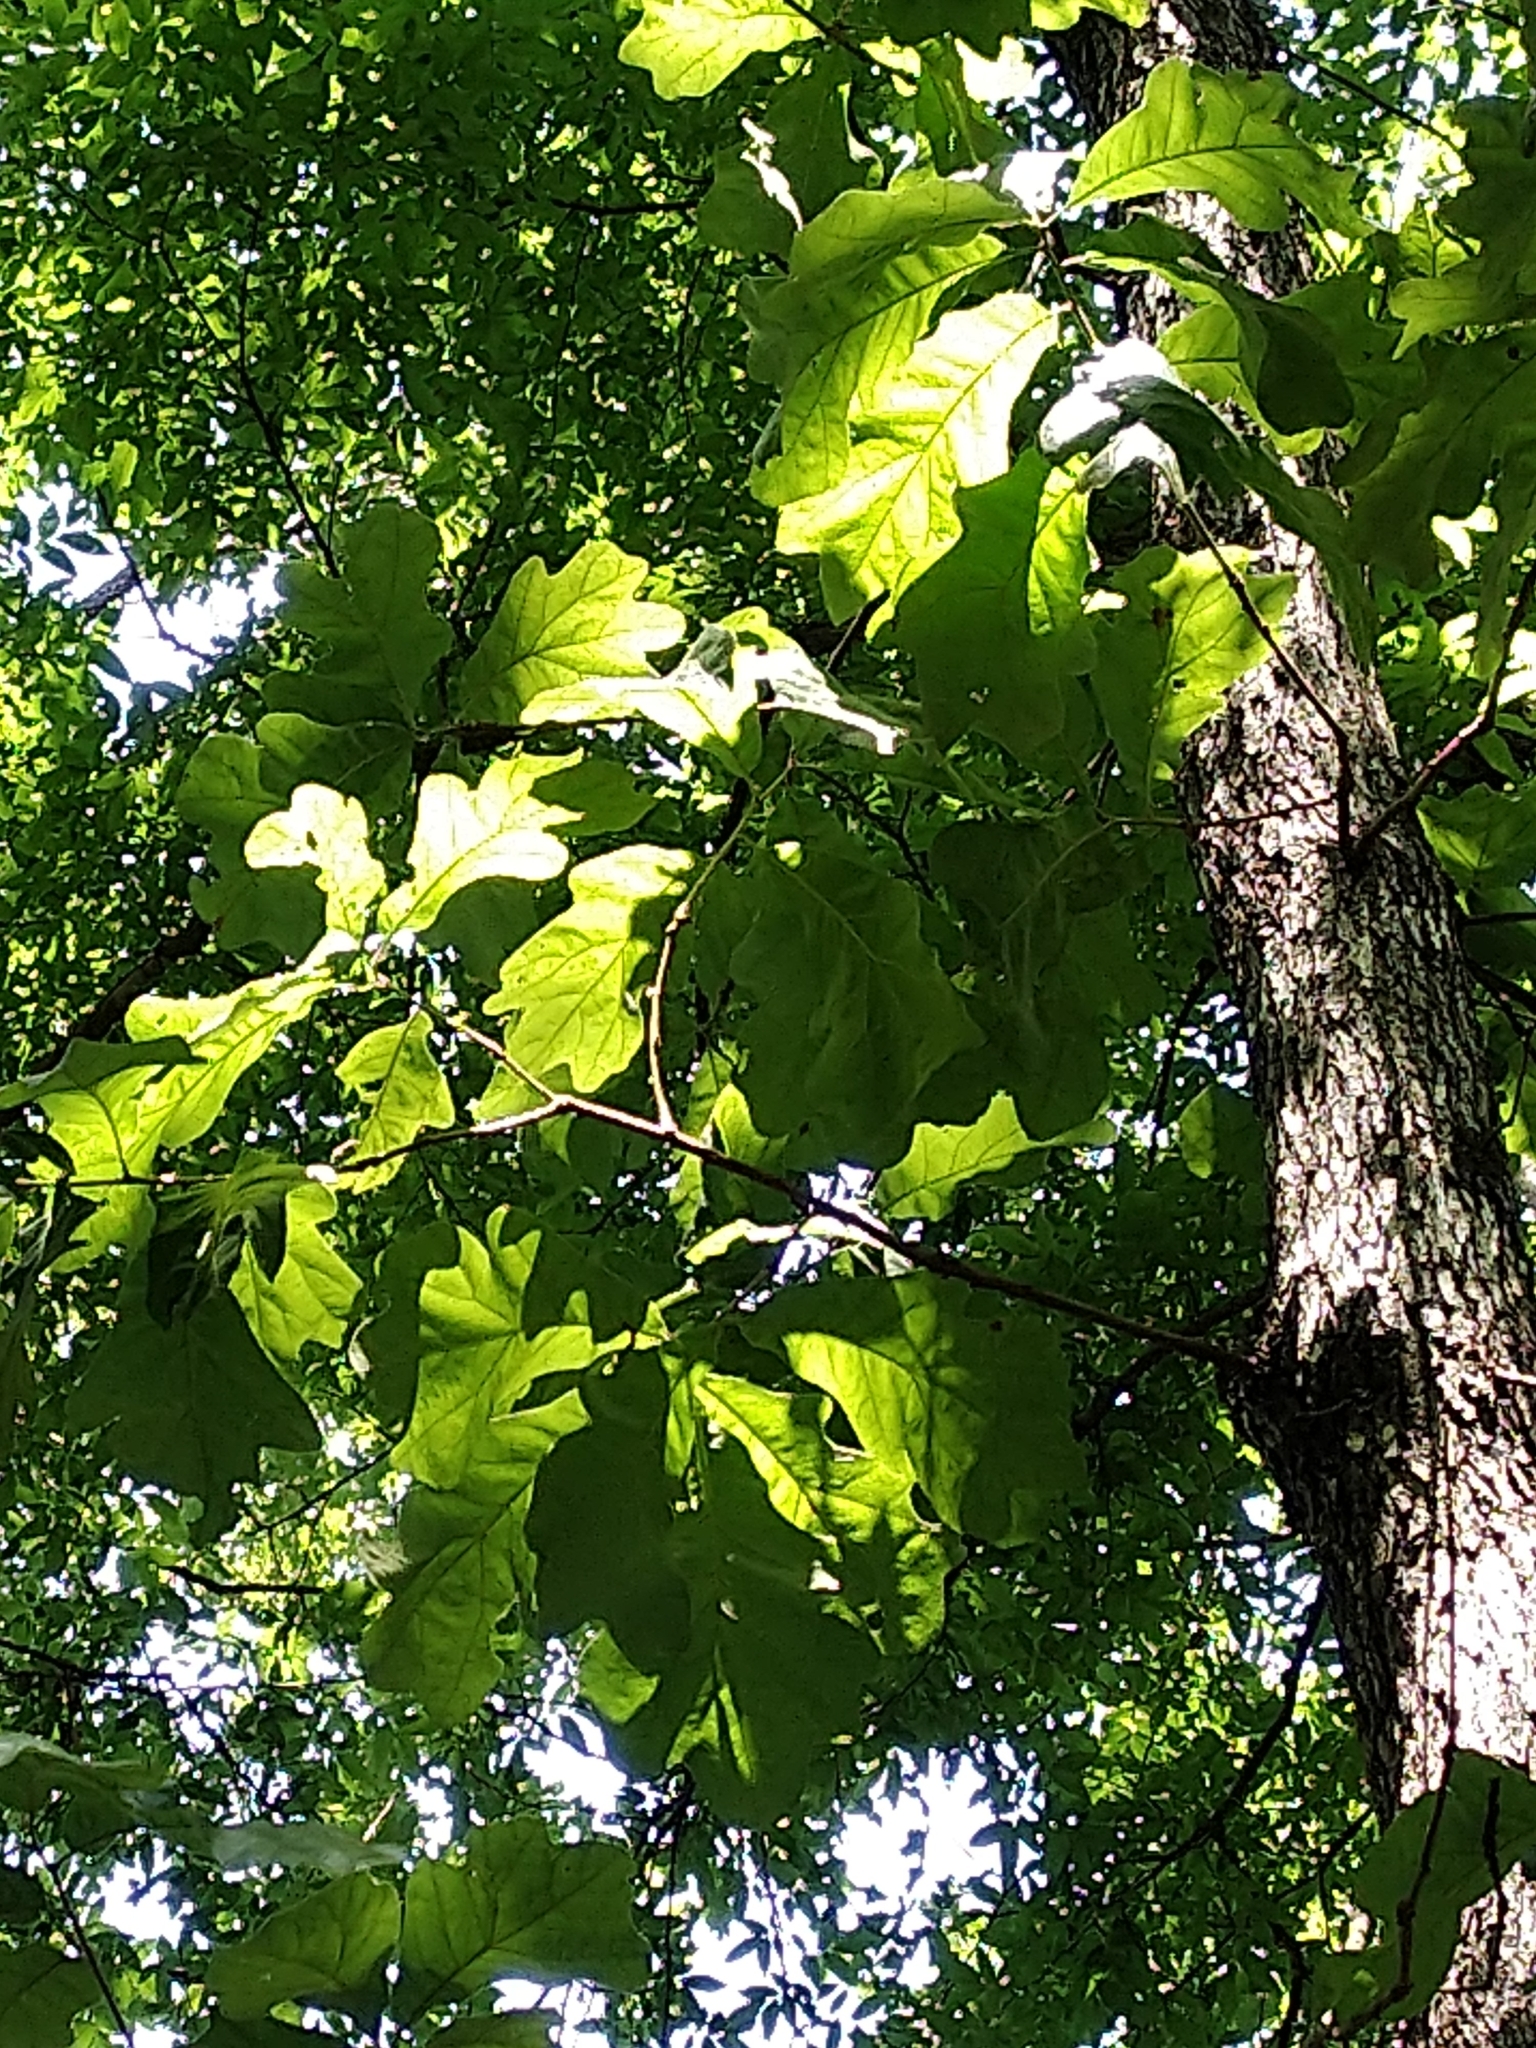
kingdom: Plantae
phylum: Tracheophyta
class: Magnoliopsida
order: Fagales
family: Fagaceae
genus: Quercus
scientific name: Quercus macrocarpa
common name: Bur oak
